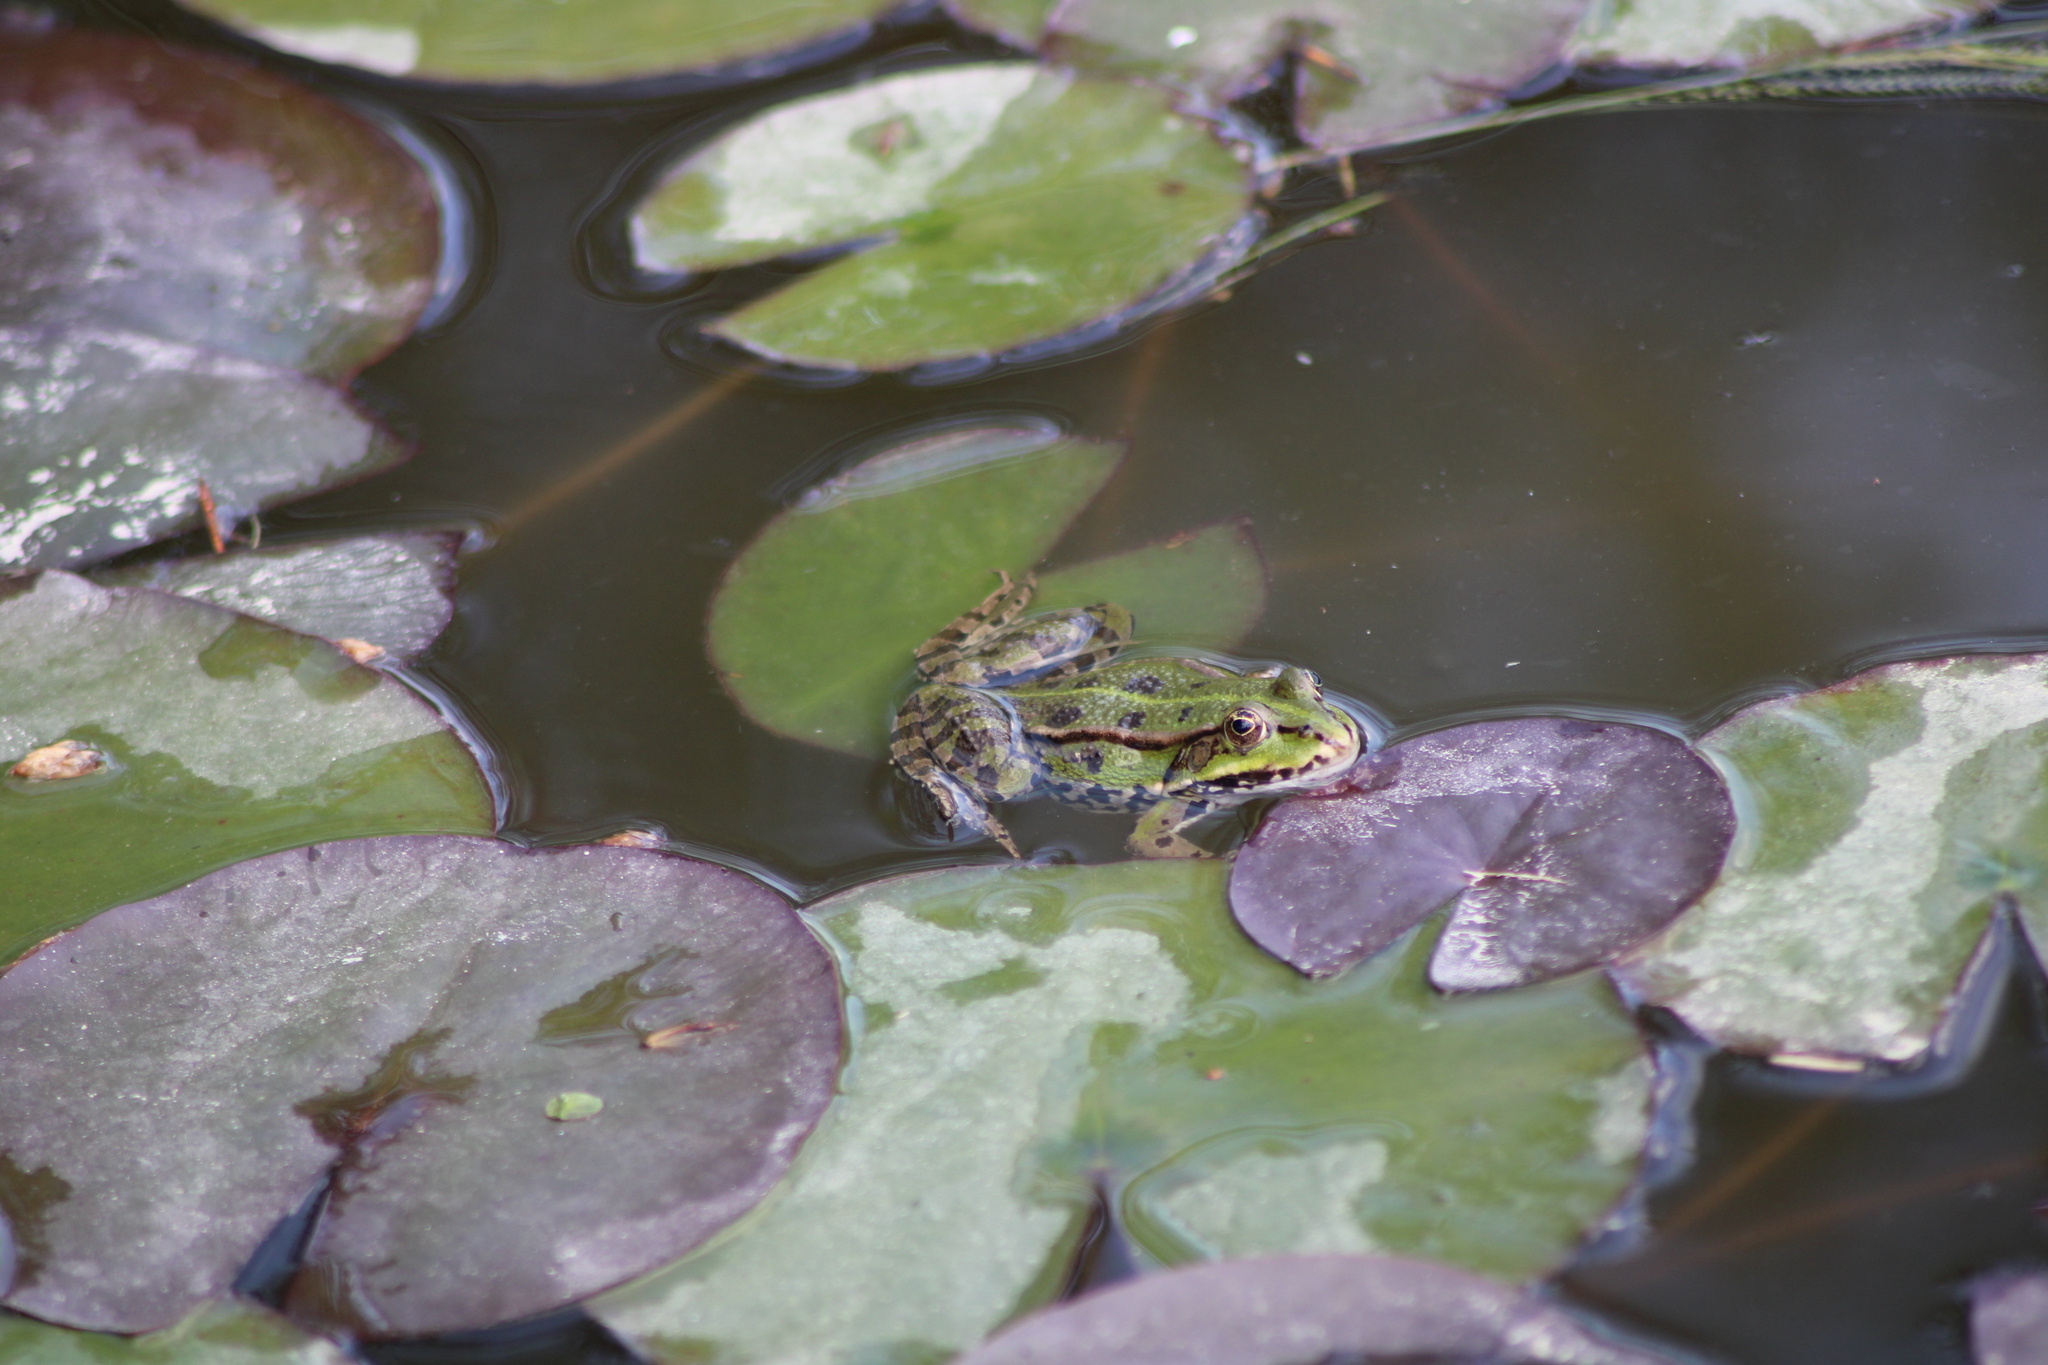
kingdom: Animalia
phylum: Chordata
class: Amphibia
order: Anura
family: Ranidae
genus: Pelophylax
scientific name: Pelophylax
